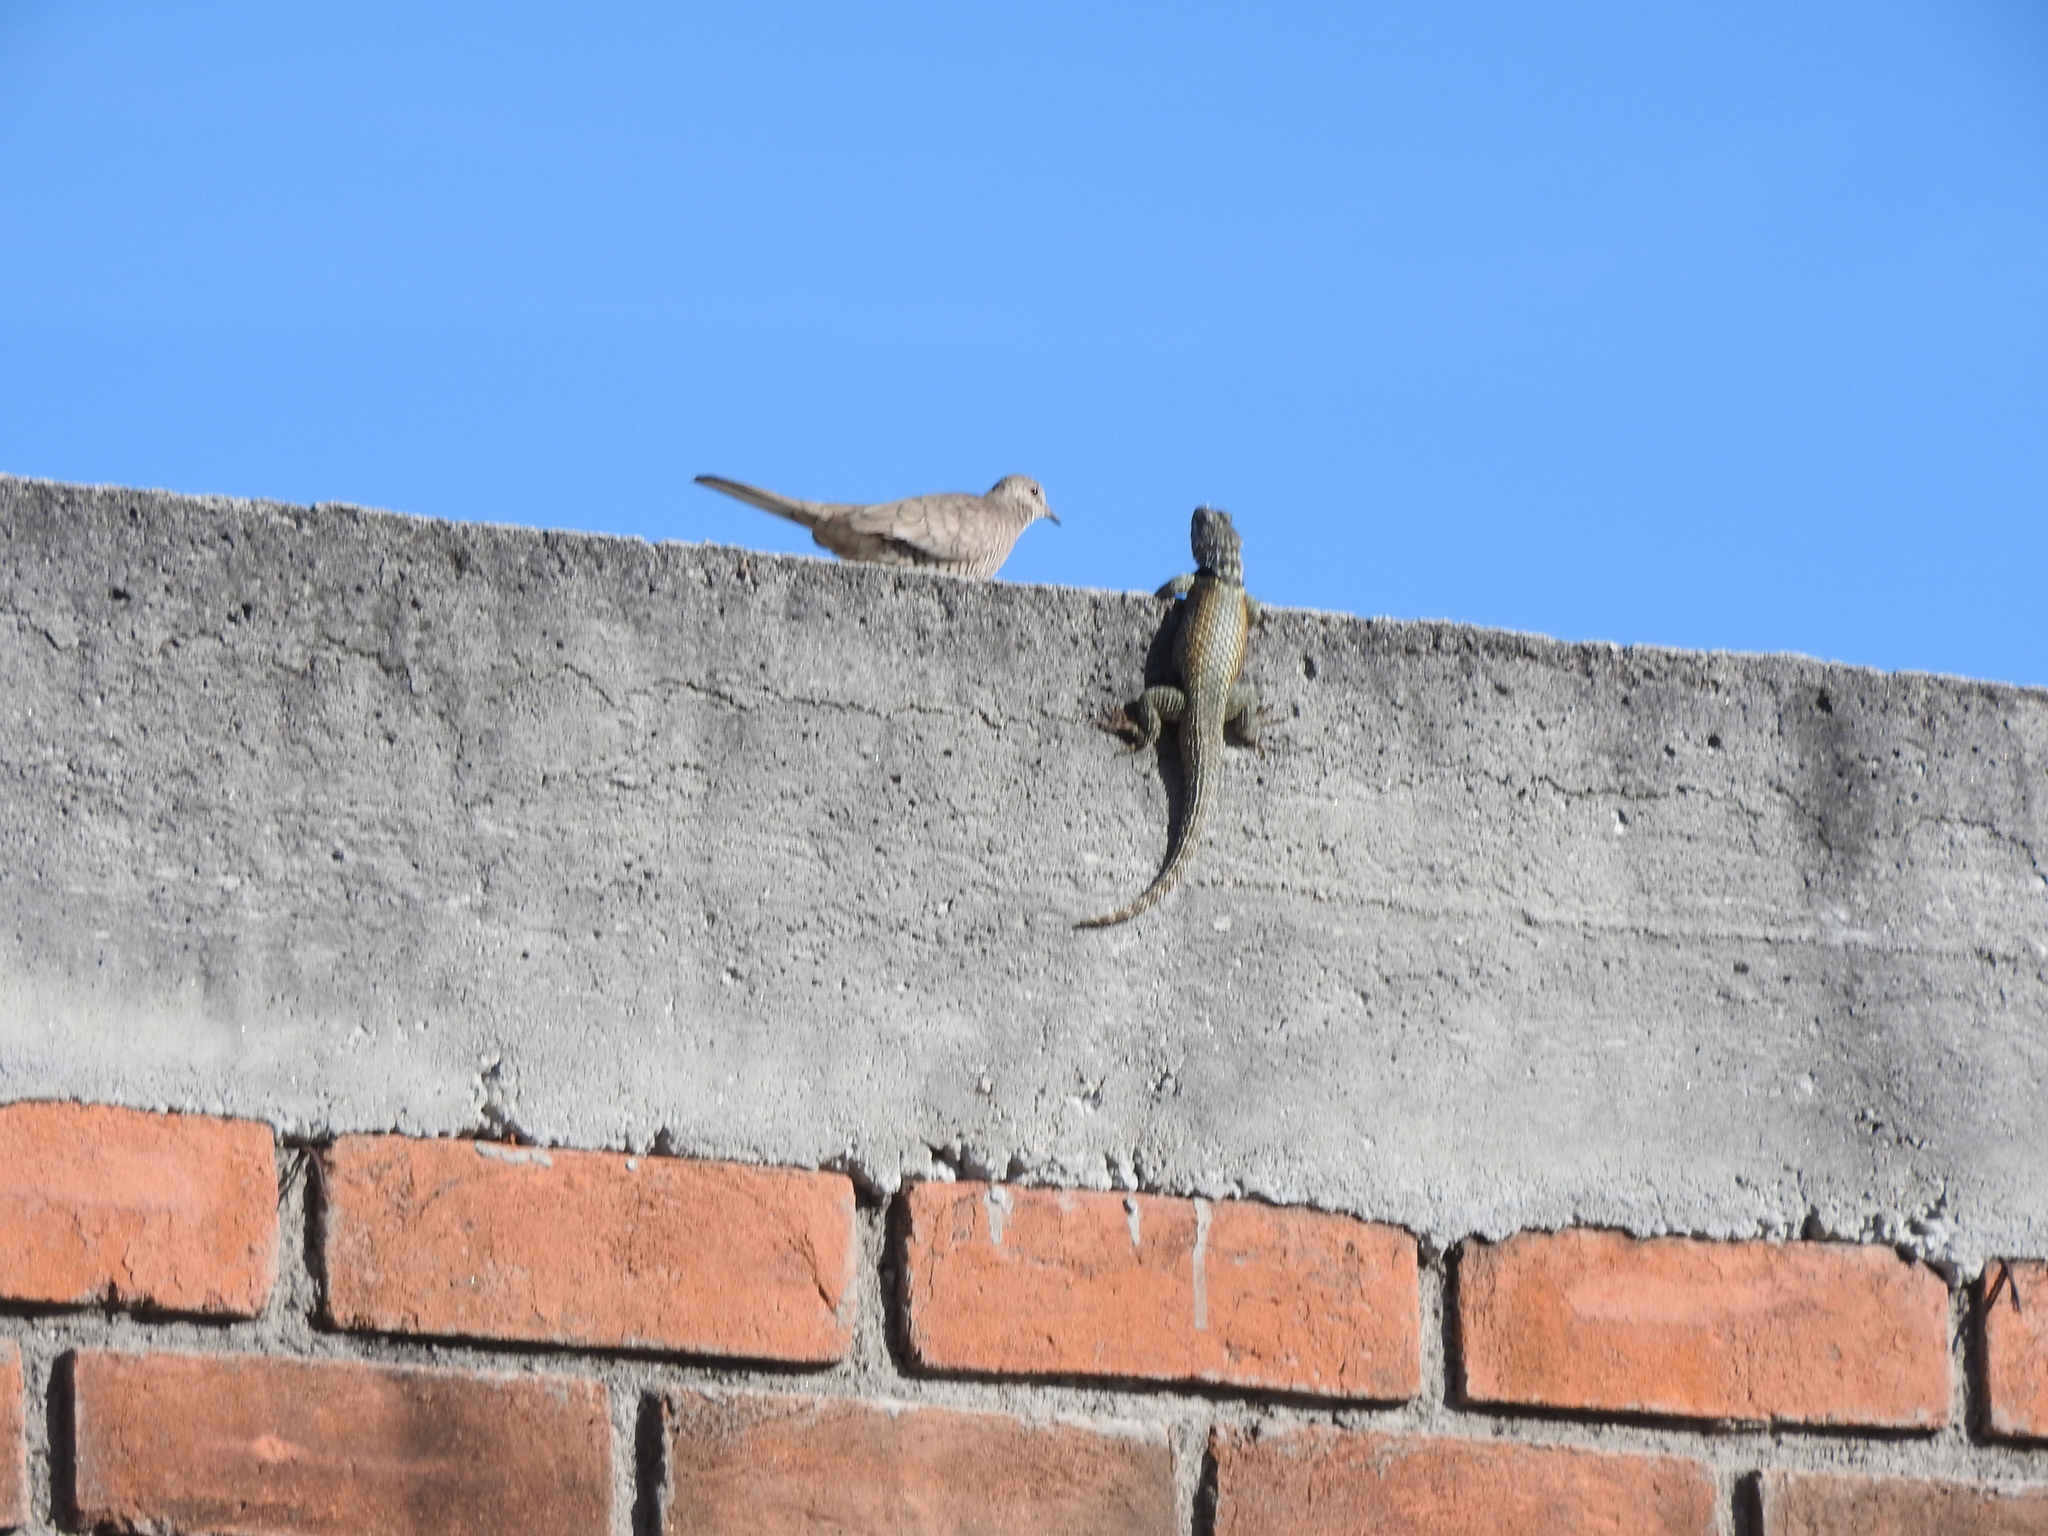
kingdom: Animalia
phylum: Chordata
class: Squamata
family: Phrynosomatidae
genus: Sceloporus
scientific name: Sceloporus torquatus
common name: Central plateau torquate lizard [melanogaster]
